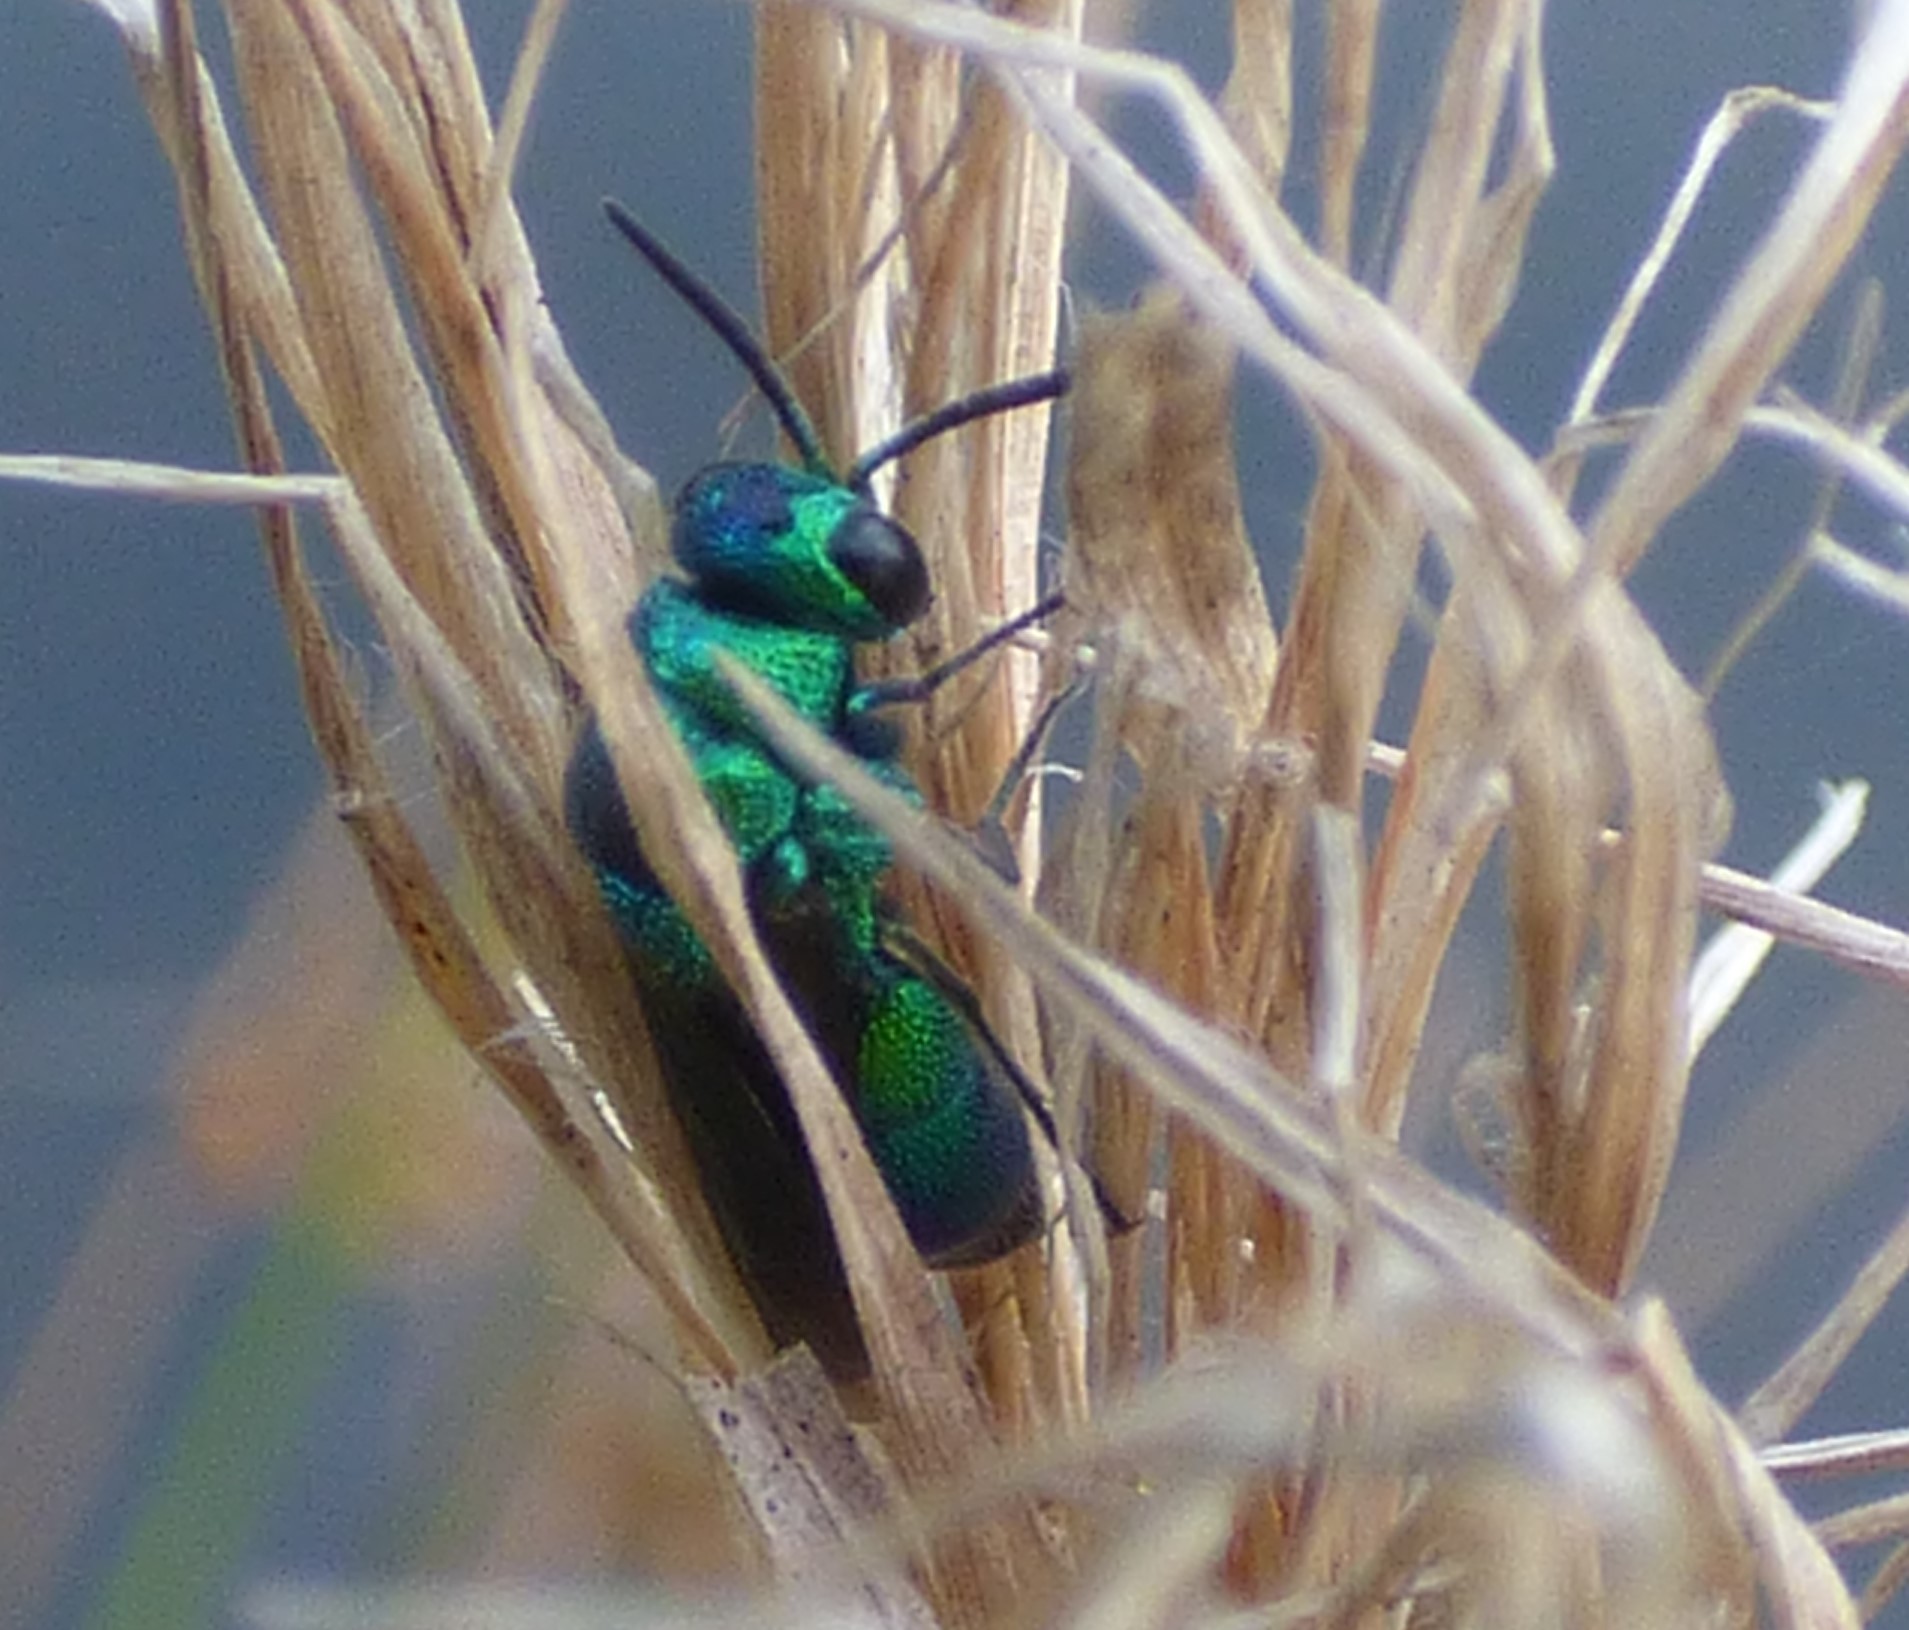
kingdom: Animalia
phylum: Arthropoda
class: Insecta
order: Hymenoptera
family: Chrysididae
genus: Chrysis
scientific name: Chrysis angolensis
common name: Cuckoo wasp
